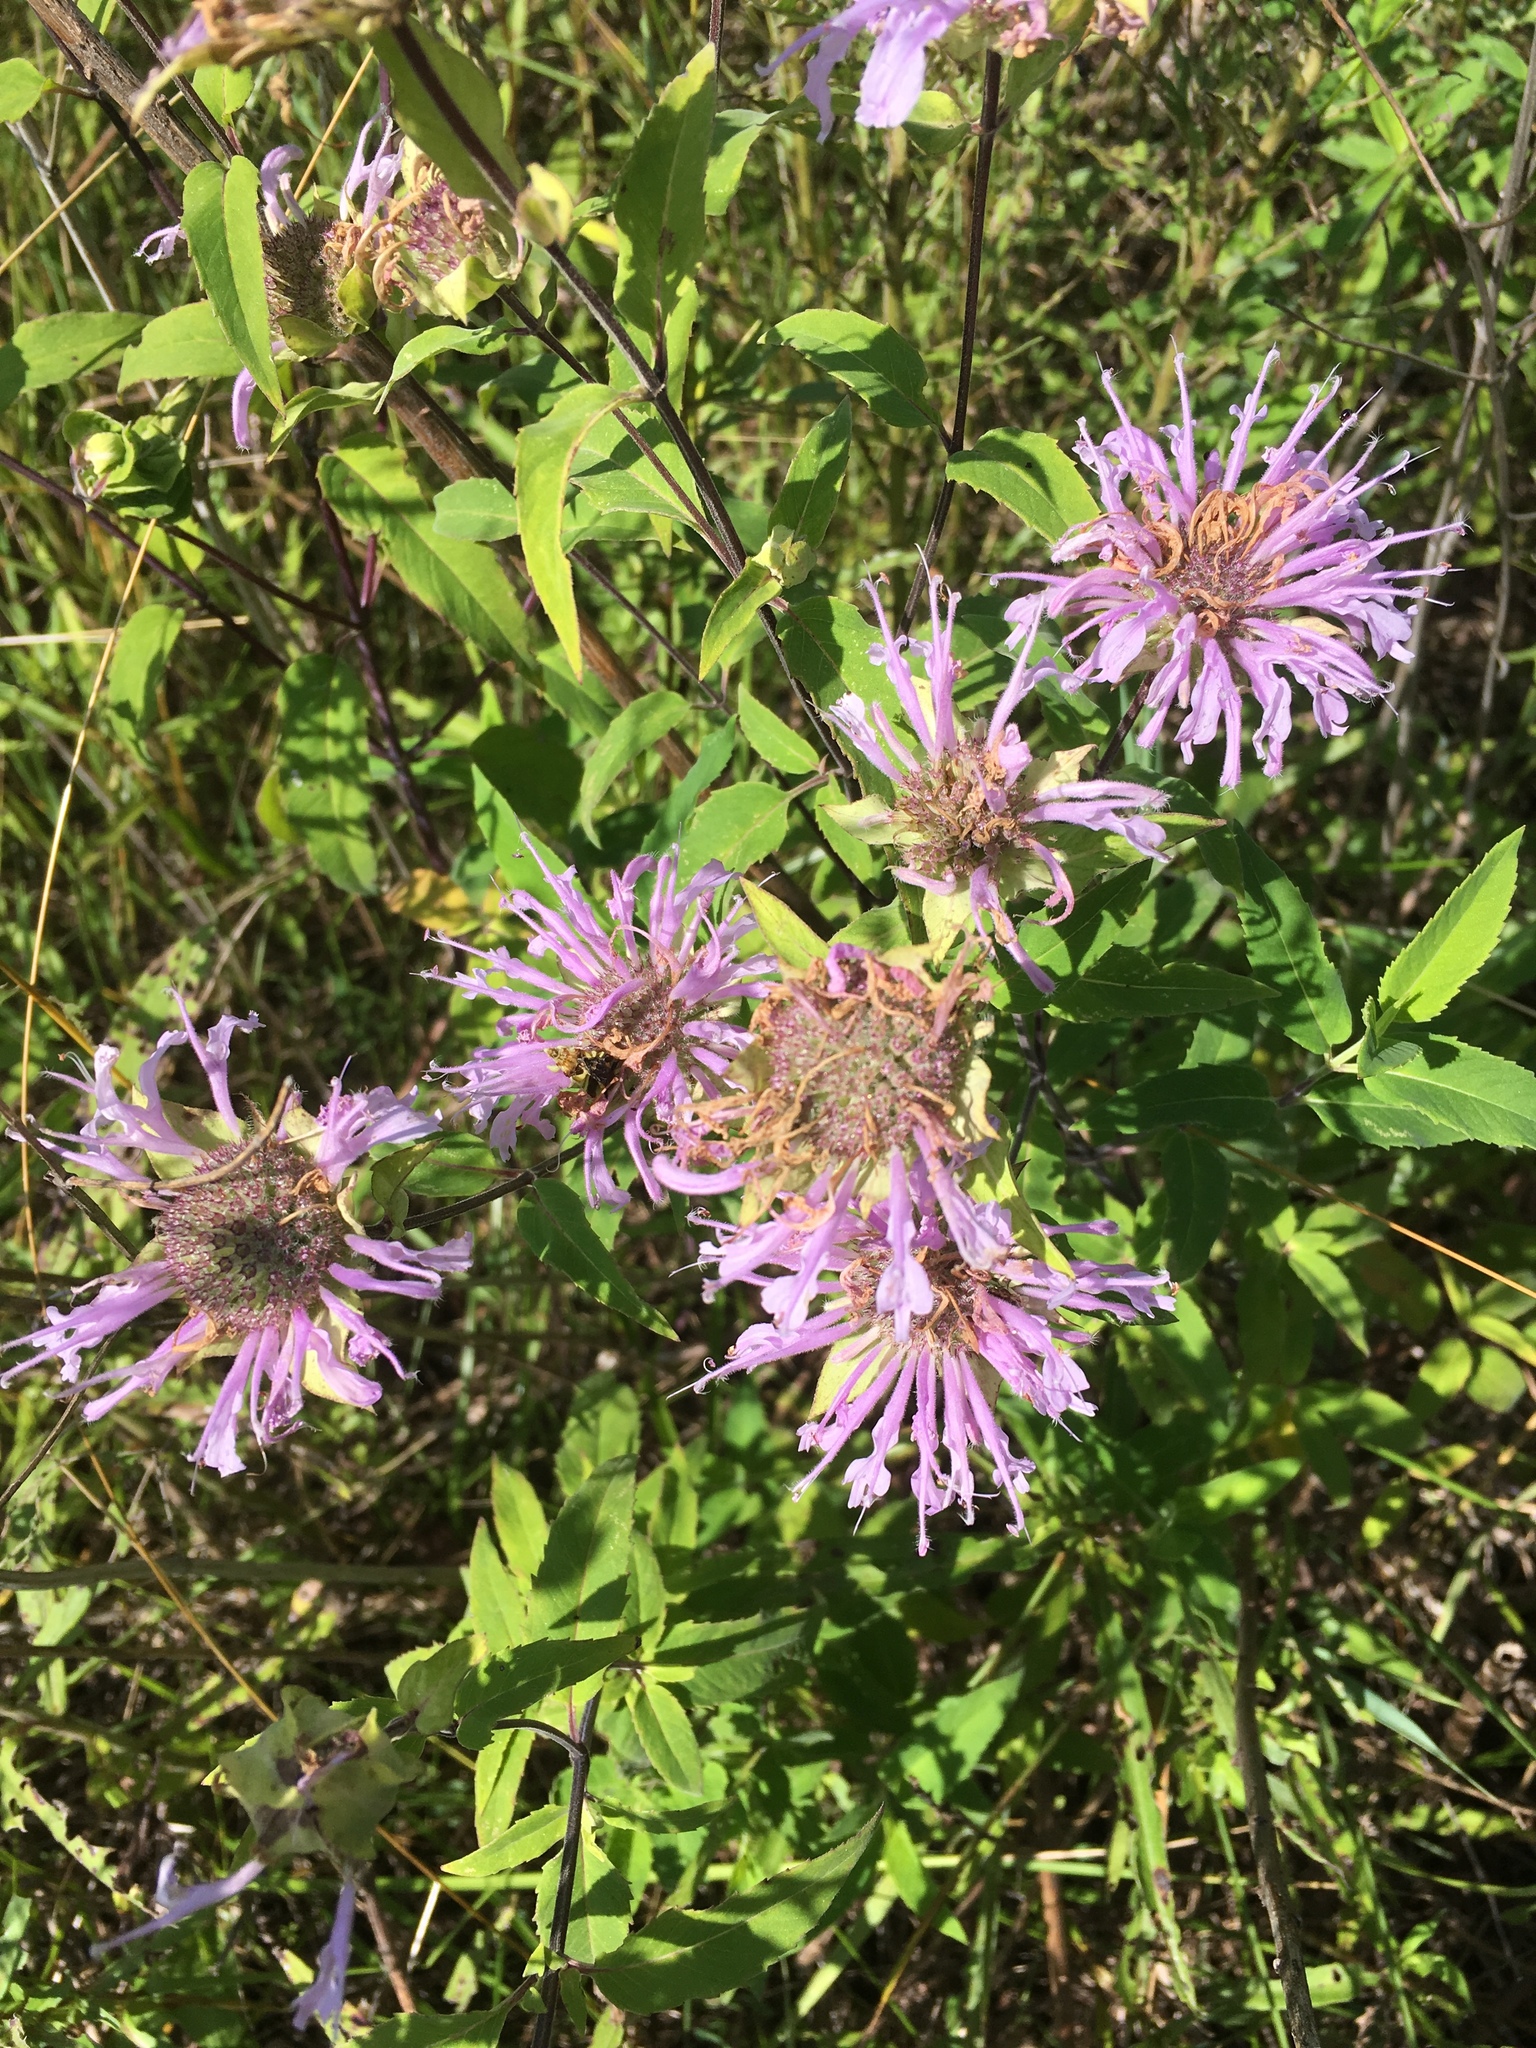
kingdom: Plantae
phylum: Tracheophyta
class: Magnoliopsida
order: Lamiales
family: Lamiaceae
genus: Monarda
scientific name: Monarda fistulosa
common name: Purple beebalm
